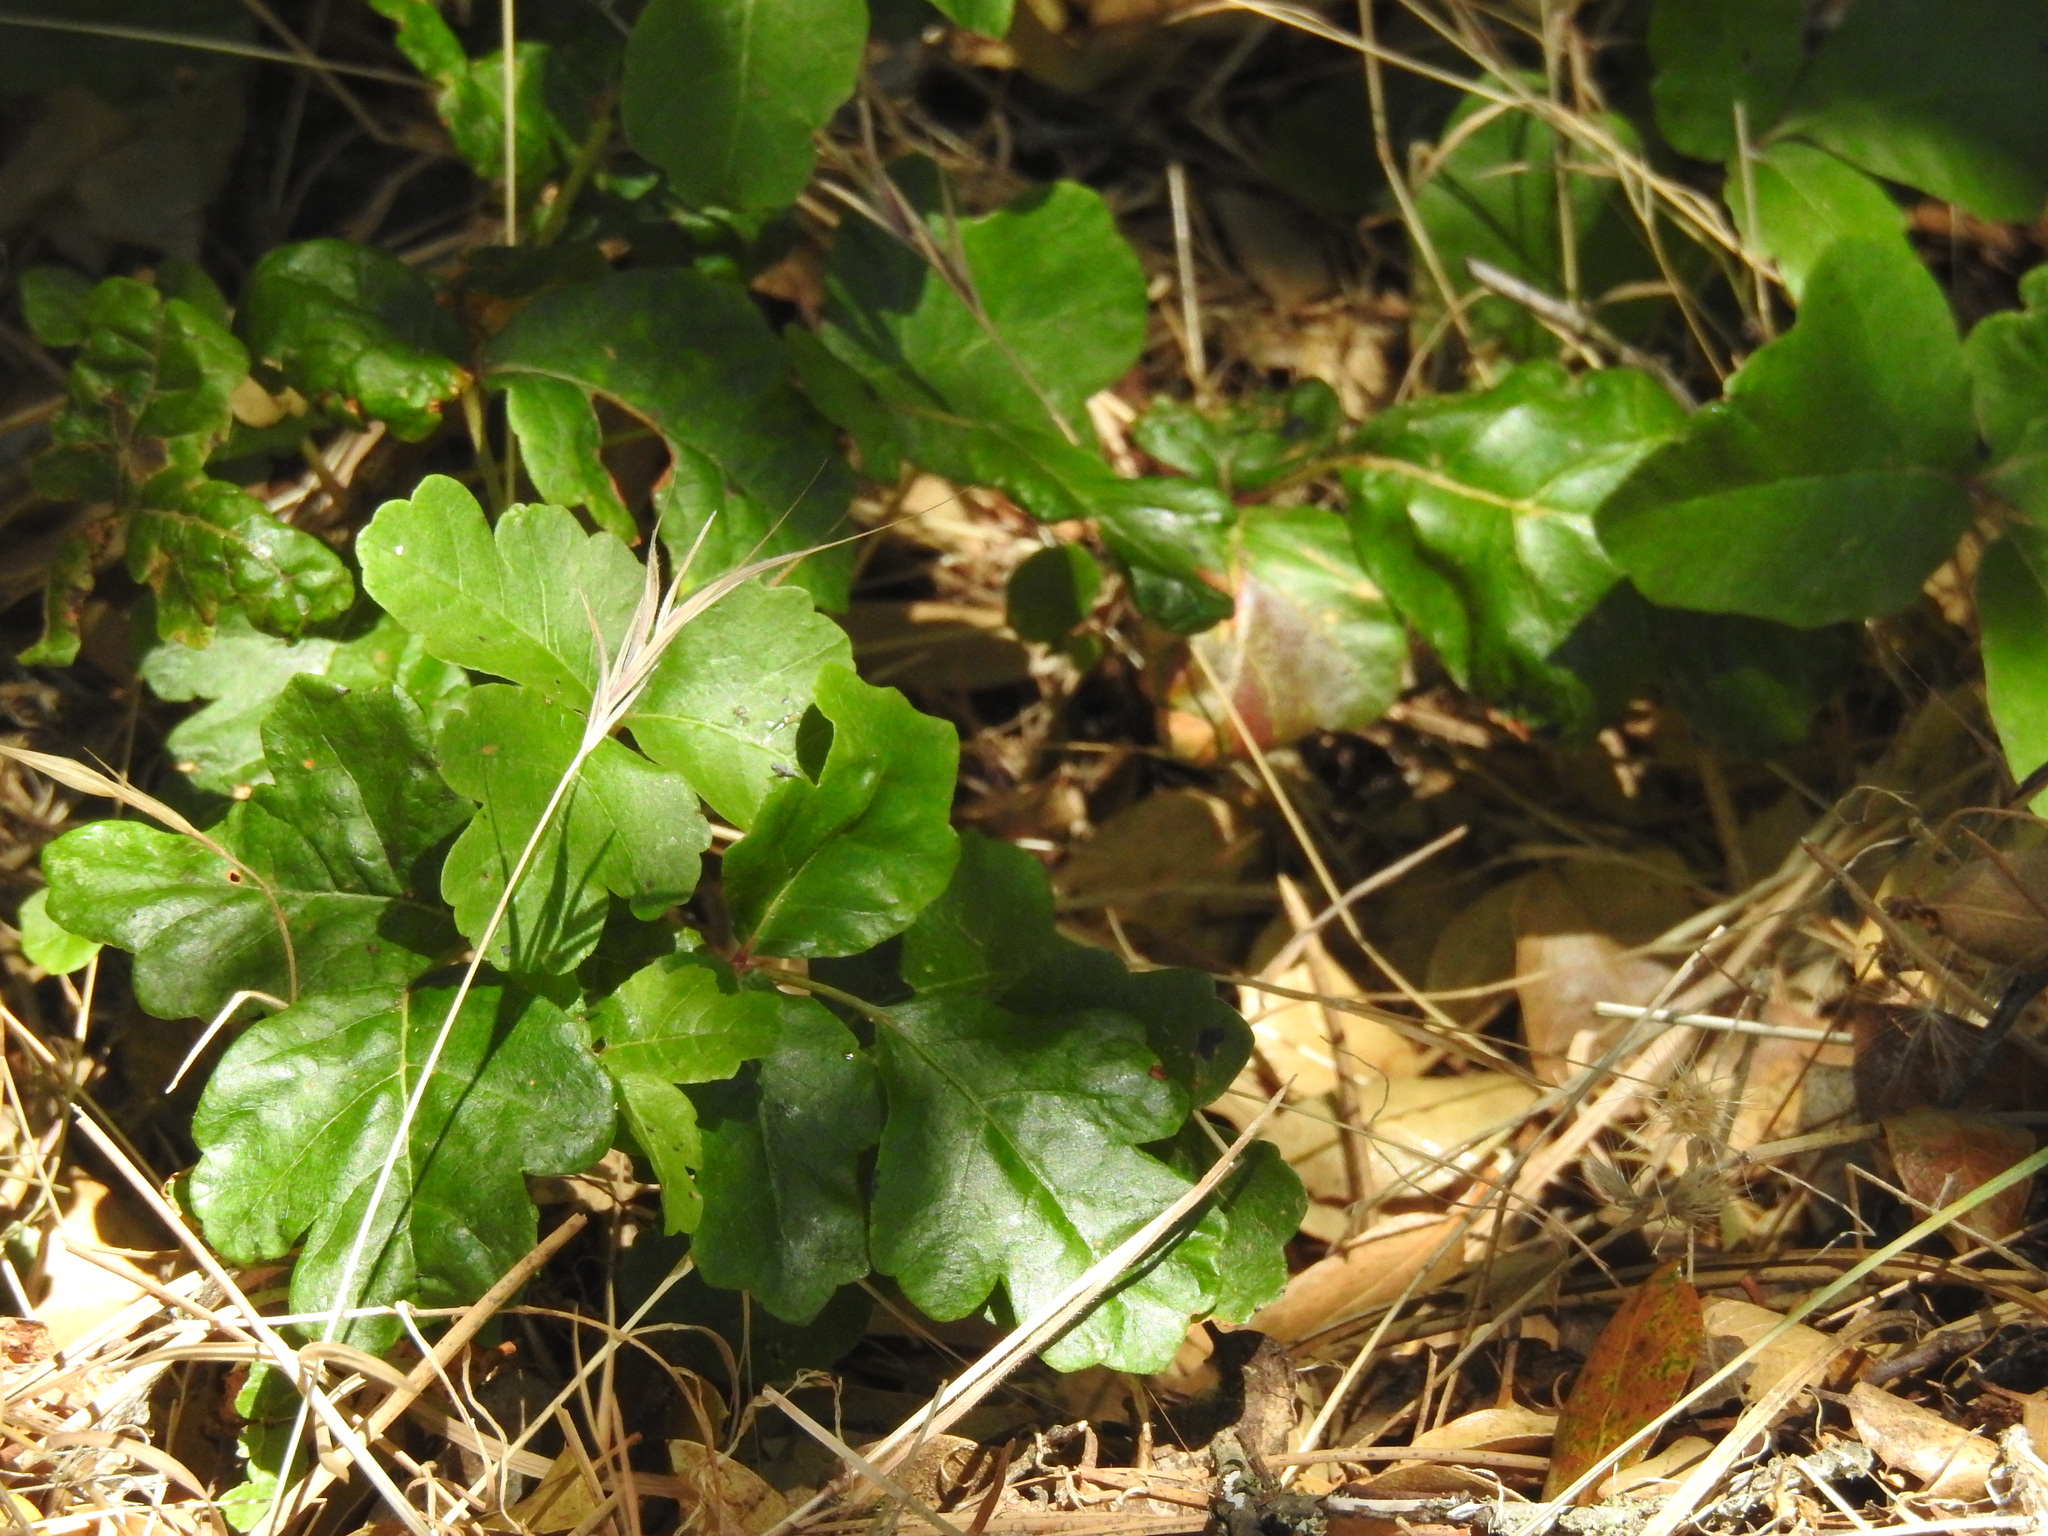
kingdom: Plantae
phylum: Tracheophyta
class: Magnoliopsida
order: Sapindales
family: Anacardiaceae
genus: Toxicodendron
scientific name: Toxicodendron diversilobum
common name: Pacific poison-oak
